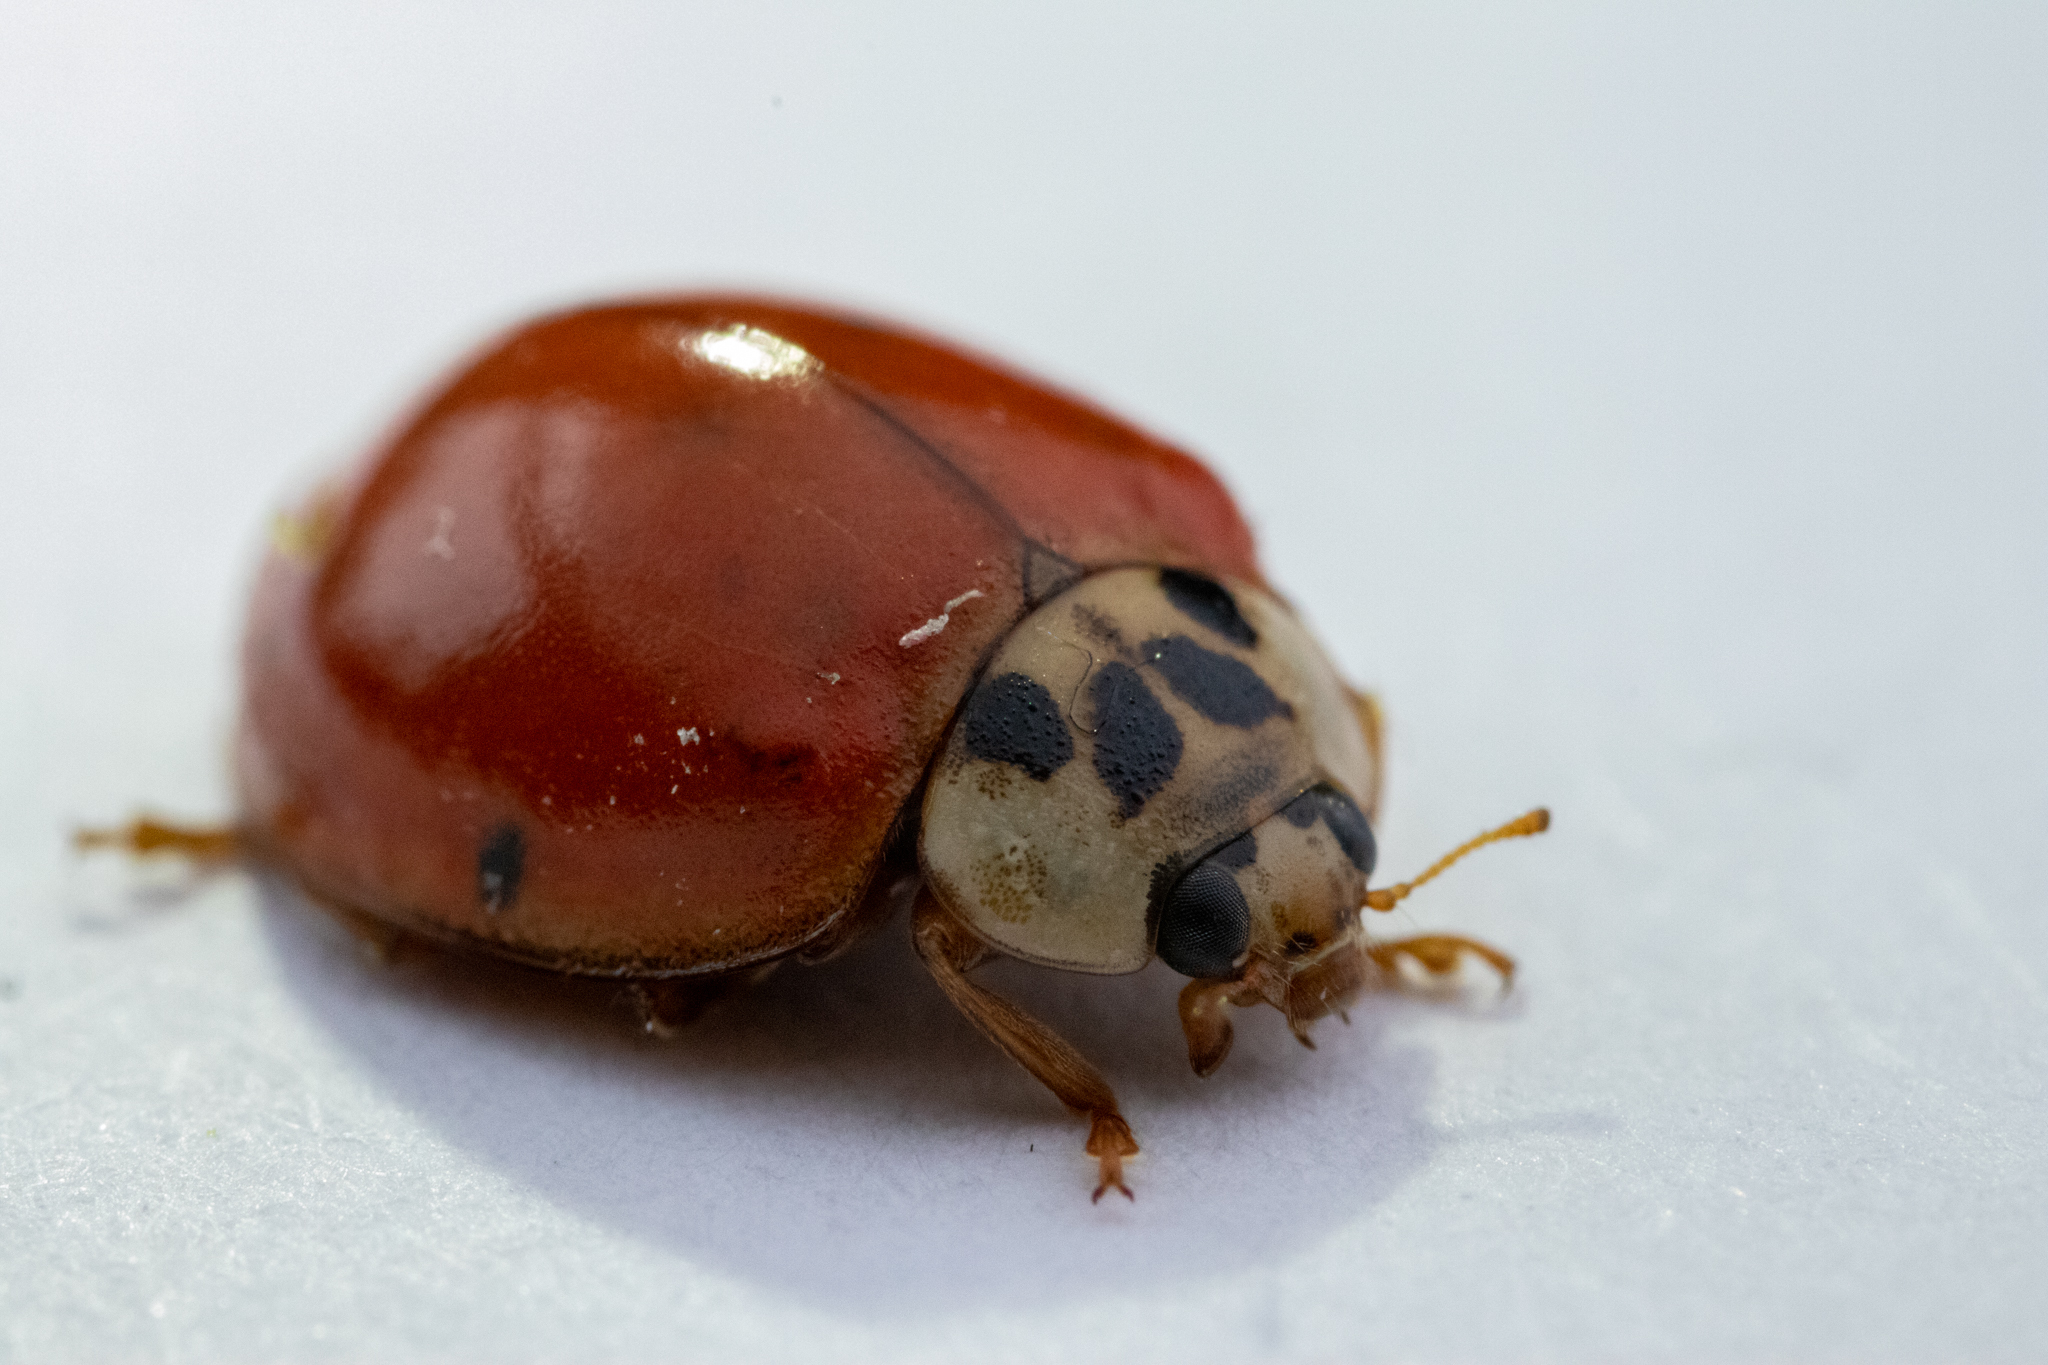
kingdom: Animalia
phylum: Arthropoda
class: Insecta
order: Coleoptera
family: Coccinellidae
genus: Harmonia
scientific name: Harmonia axyridis
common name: Harlequin ladybird
